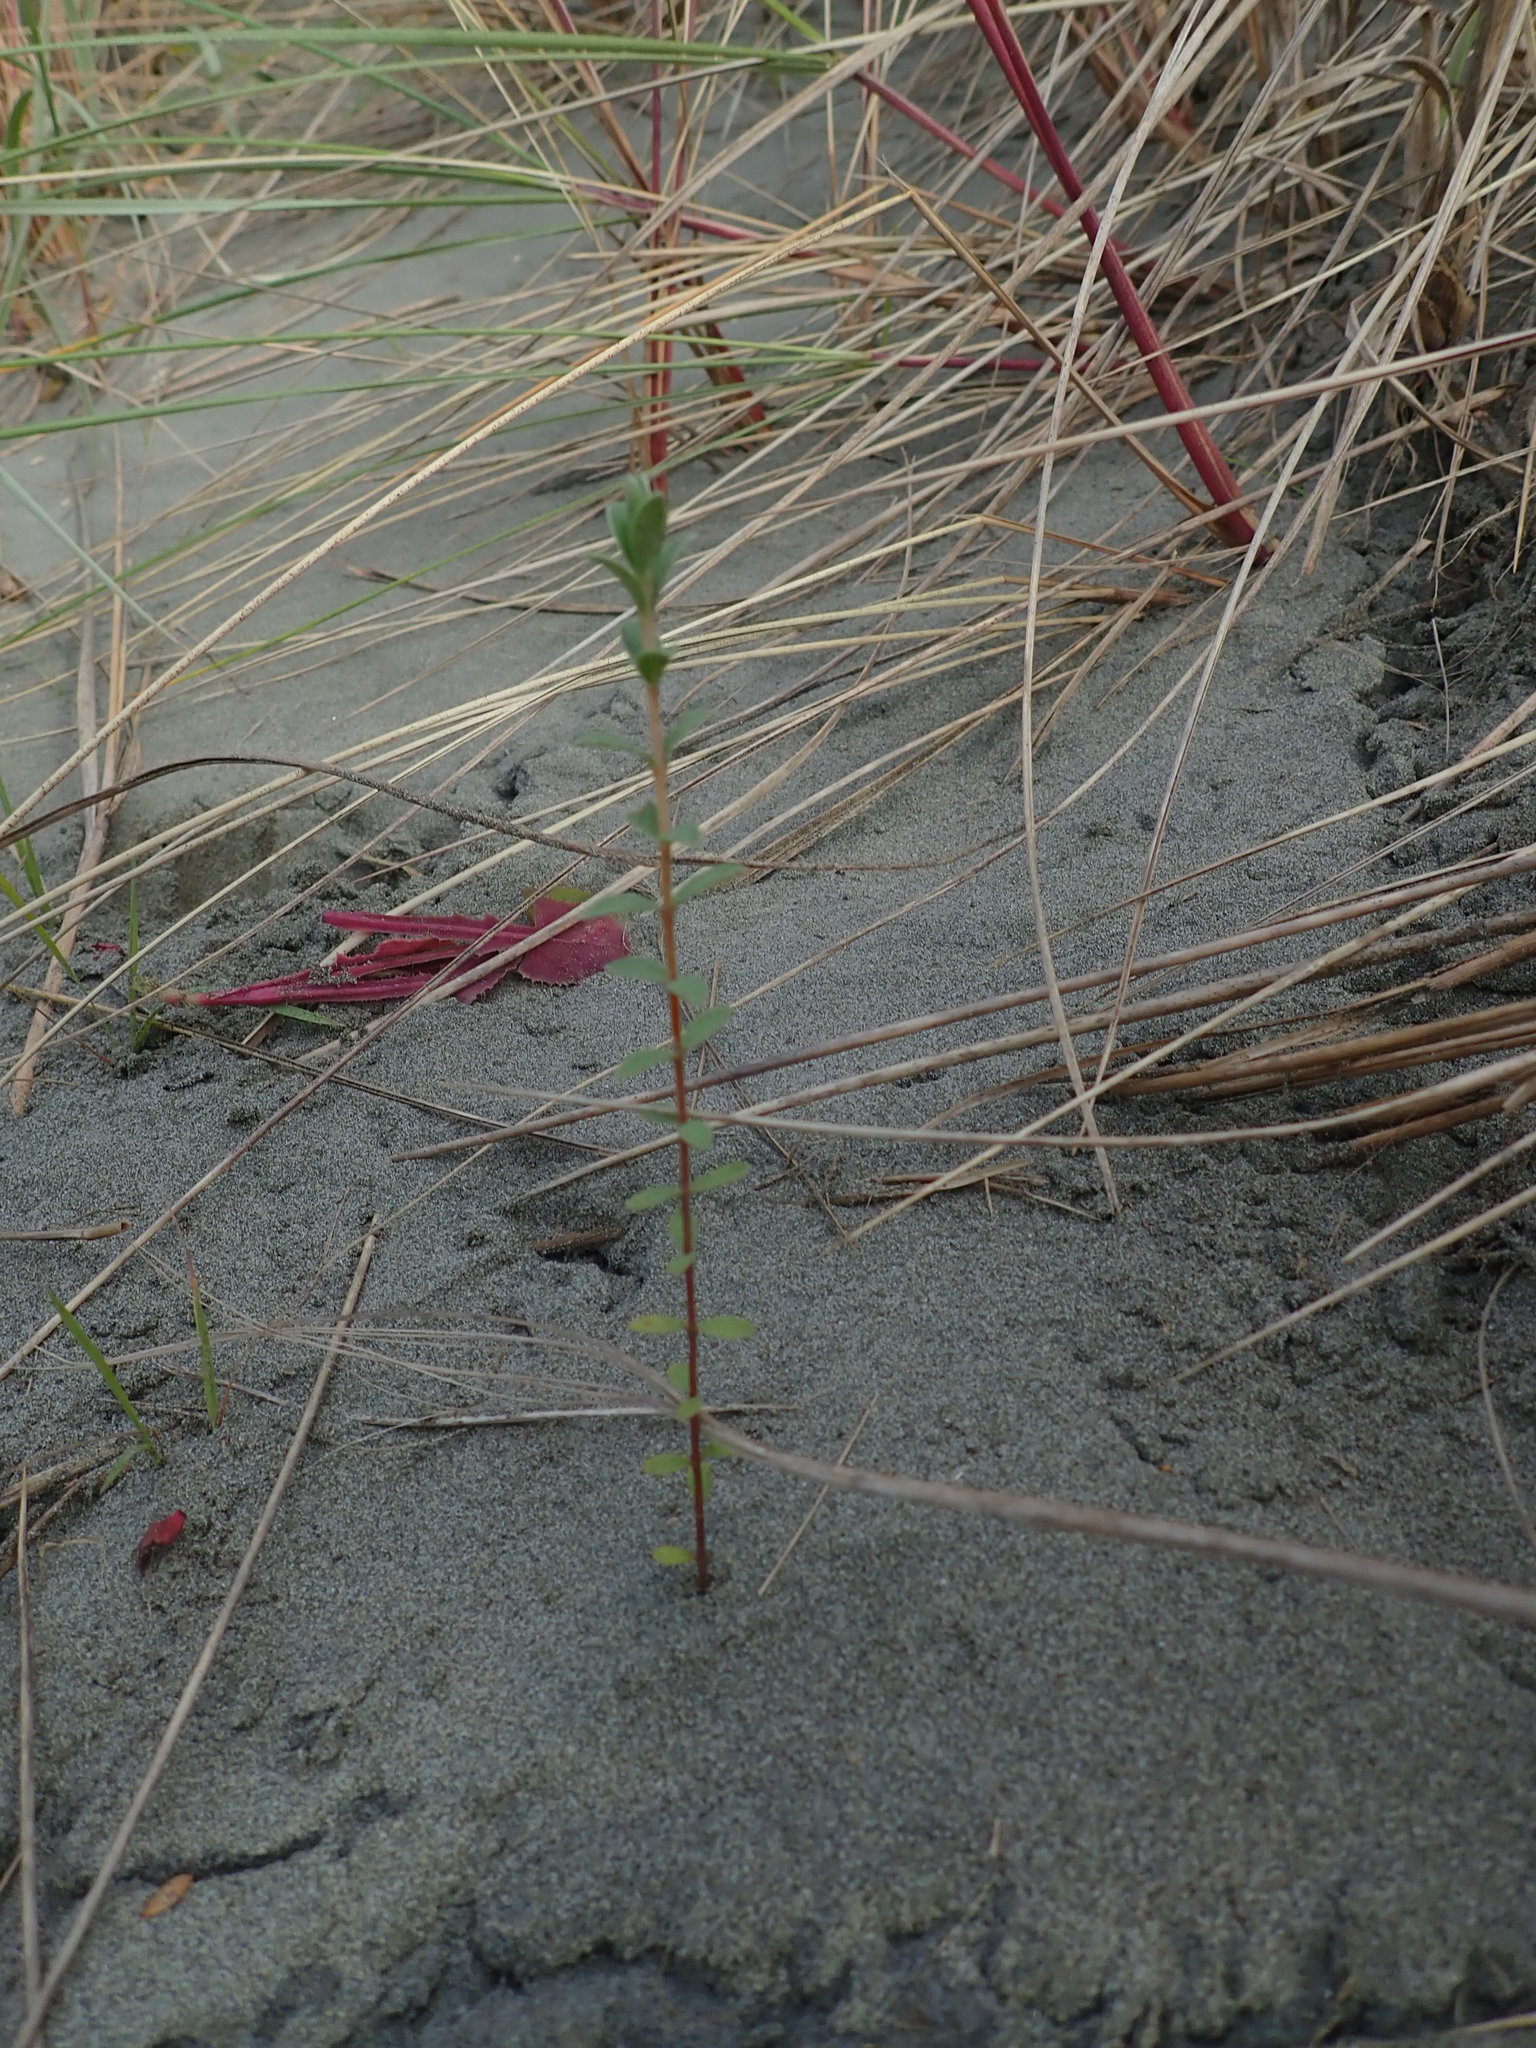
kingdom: Plantae
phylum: Tracheophyta
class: Magnoliopsida
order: Malvales
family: Thymelaeaceae
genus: Pimelea
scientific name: Pimelea villosa
